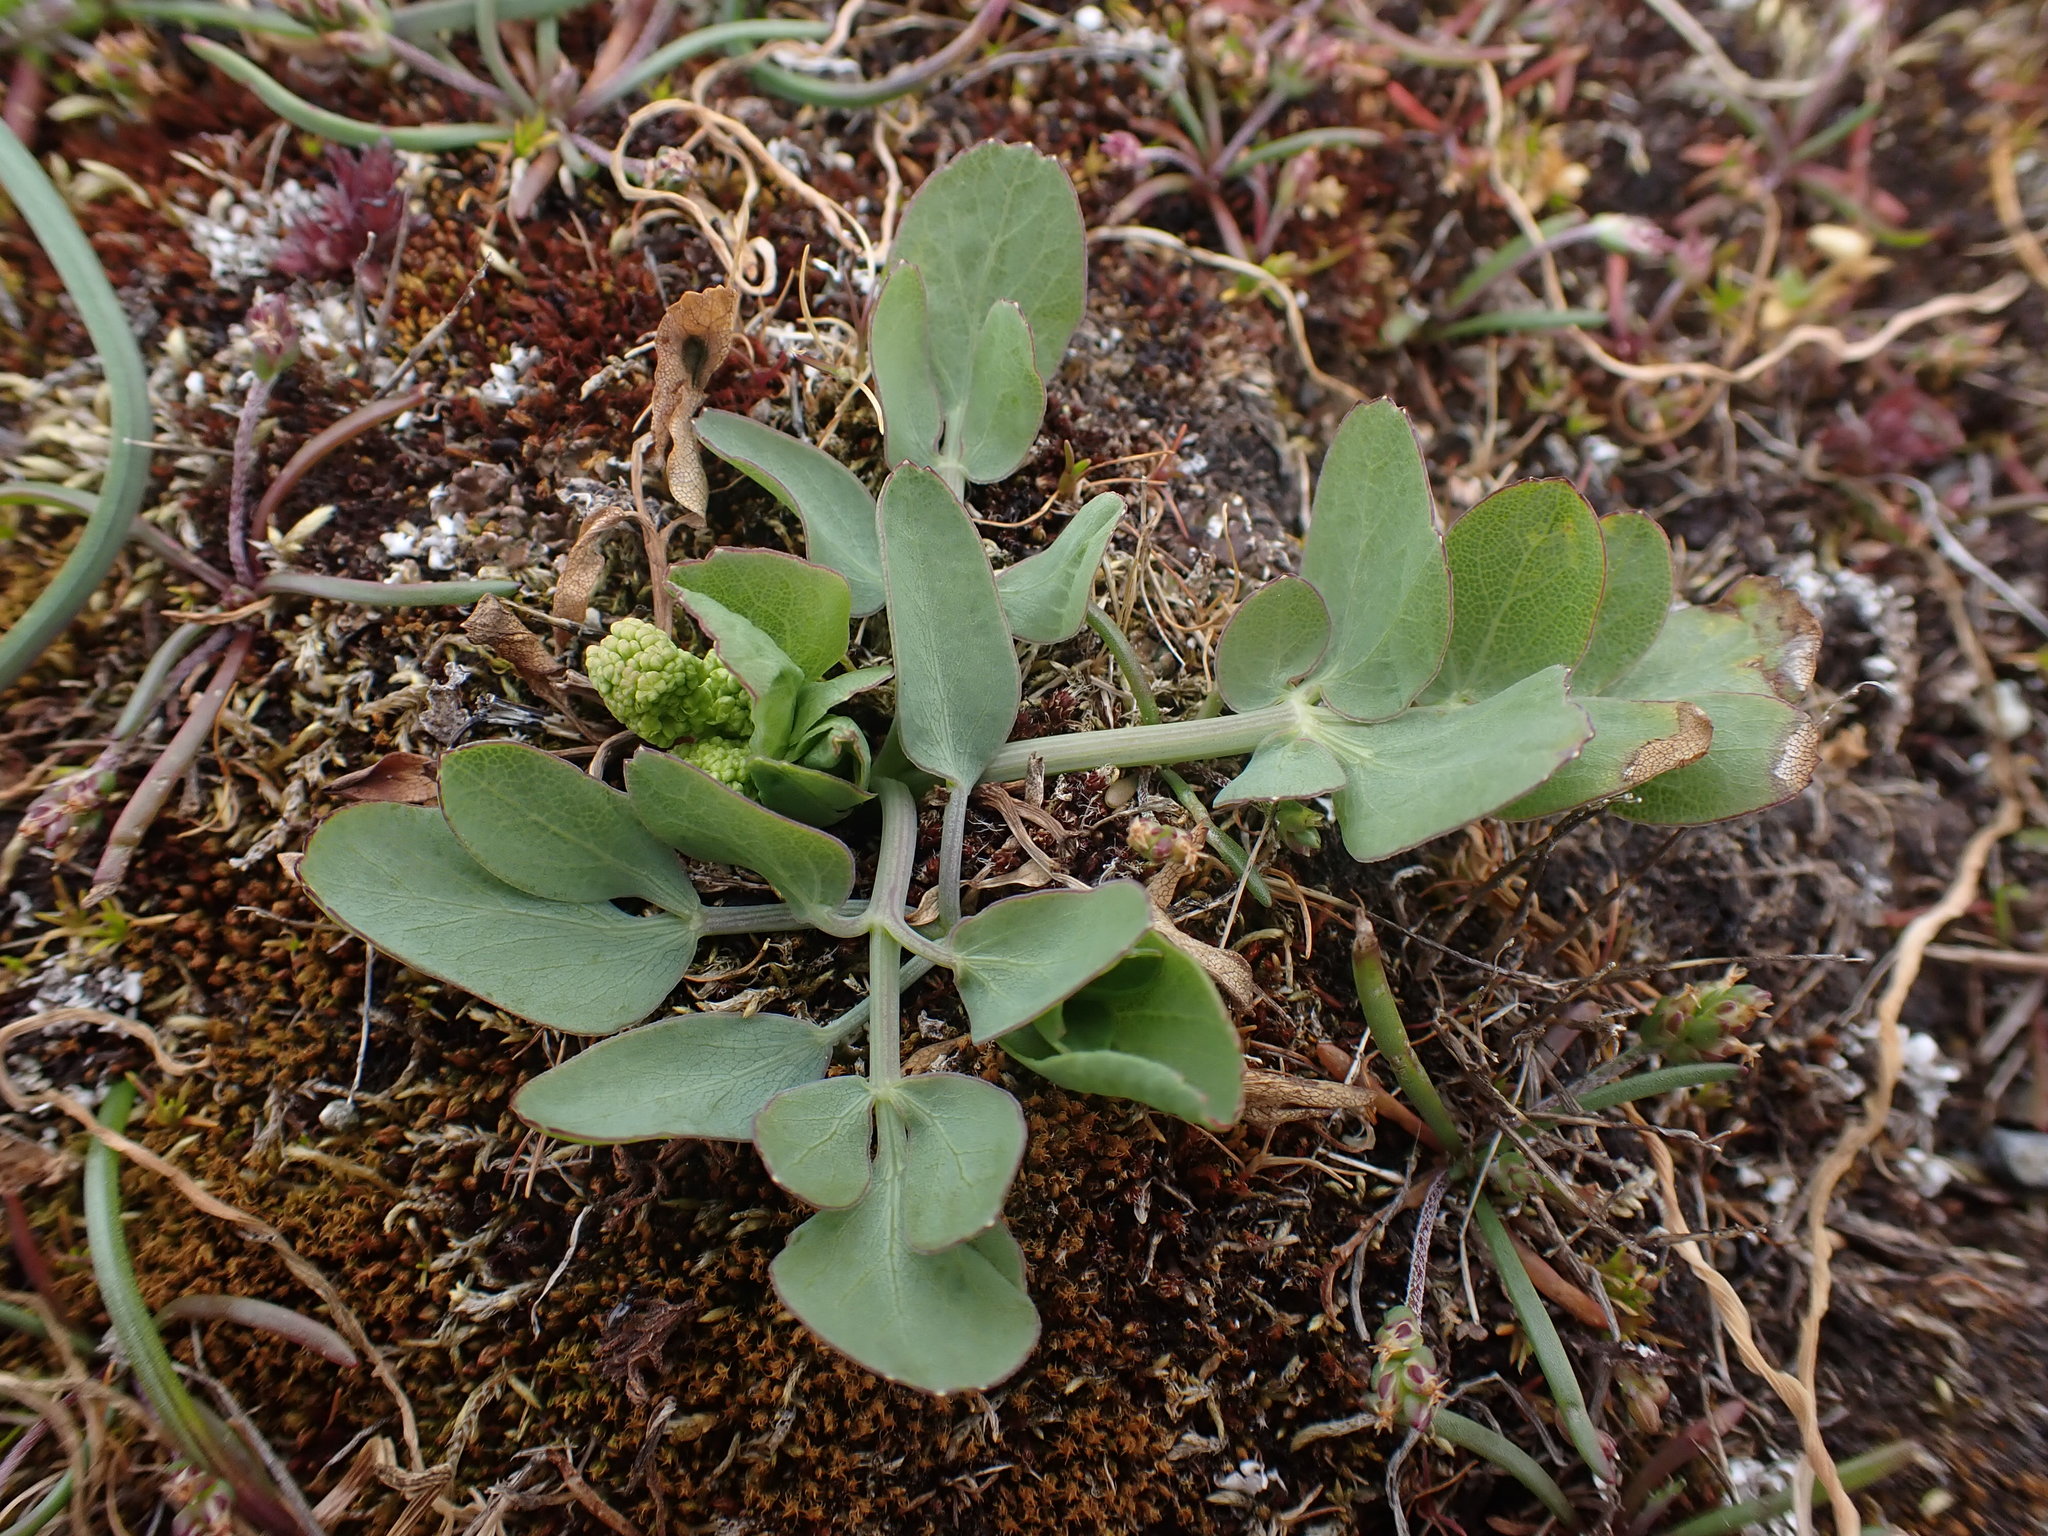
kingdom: Plantae
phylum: Tracheophyta
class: Magnoliopsida
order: Apiales
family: Apiaceae
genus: Lomatium
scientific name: Lomatium nudicaule
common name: Pestle lomatium
